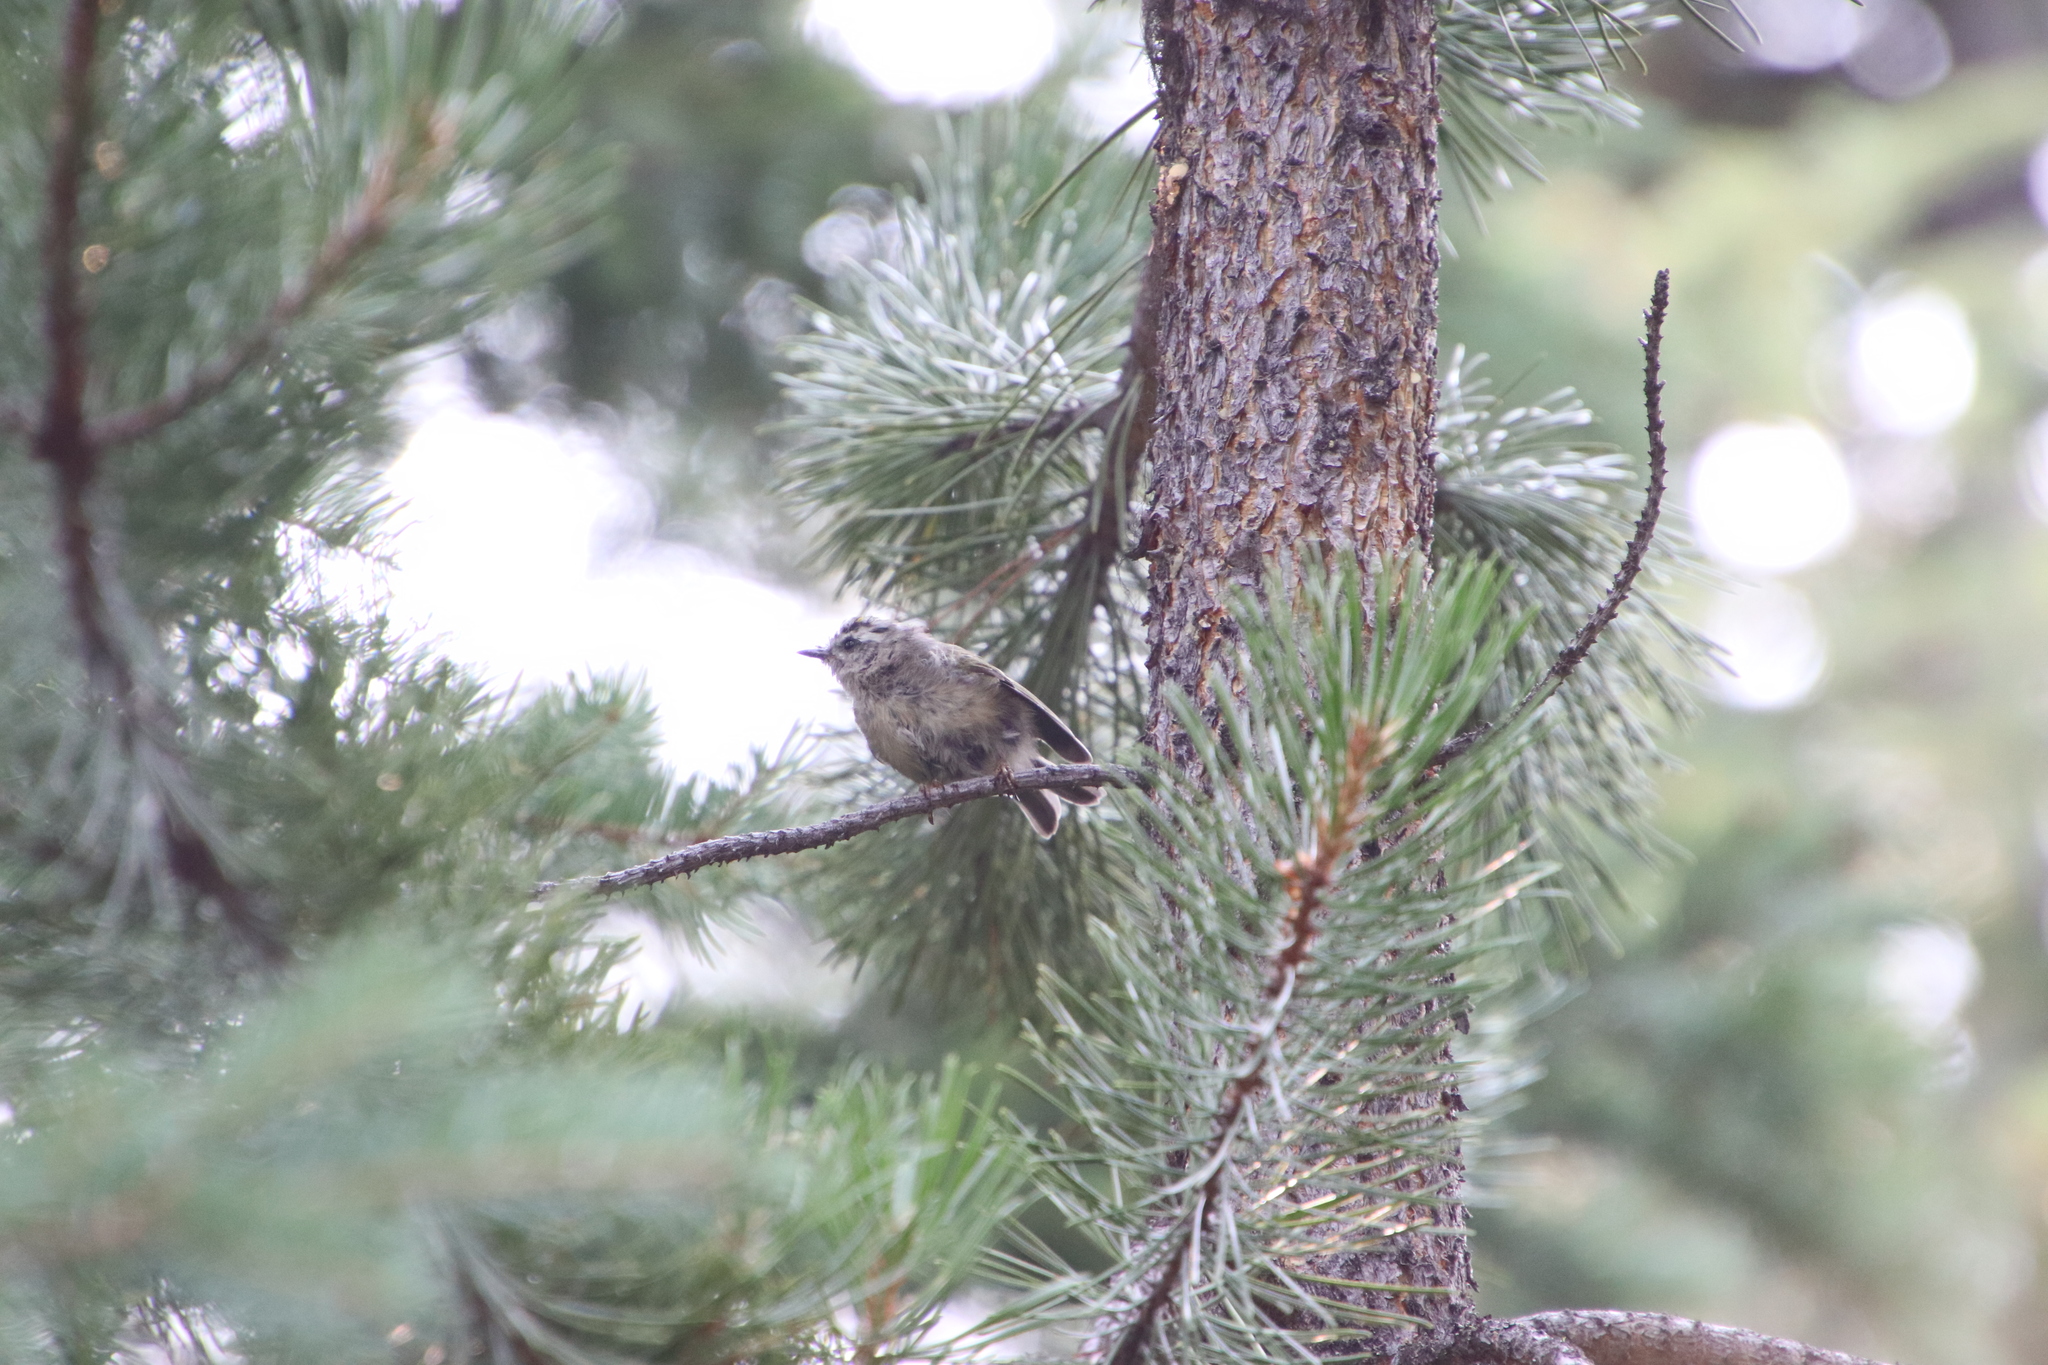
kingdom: Animalia
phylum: Chordata
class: Aves
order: Passeriformes
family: Regulidae
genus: Regulus
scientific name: Regulus satrapa
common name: Golden-crowned kinglet
